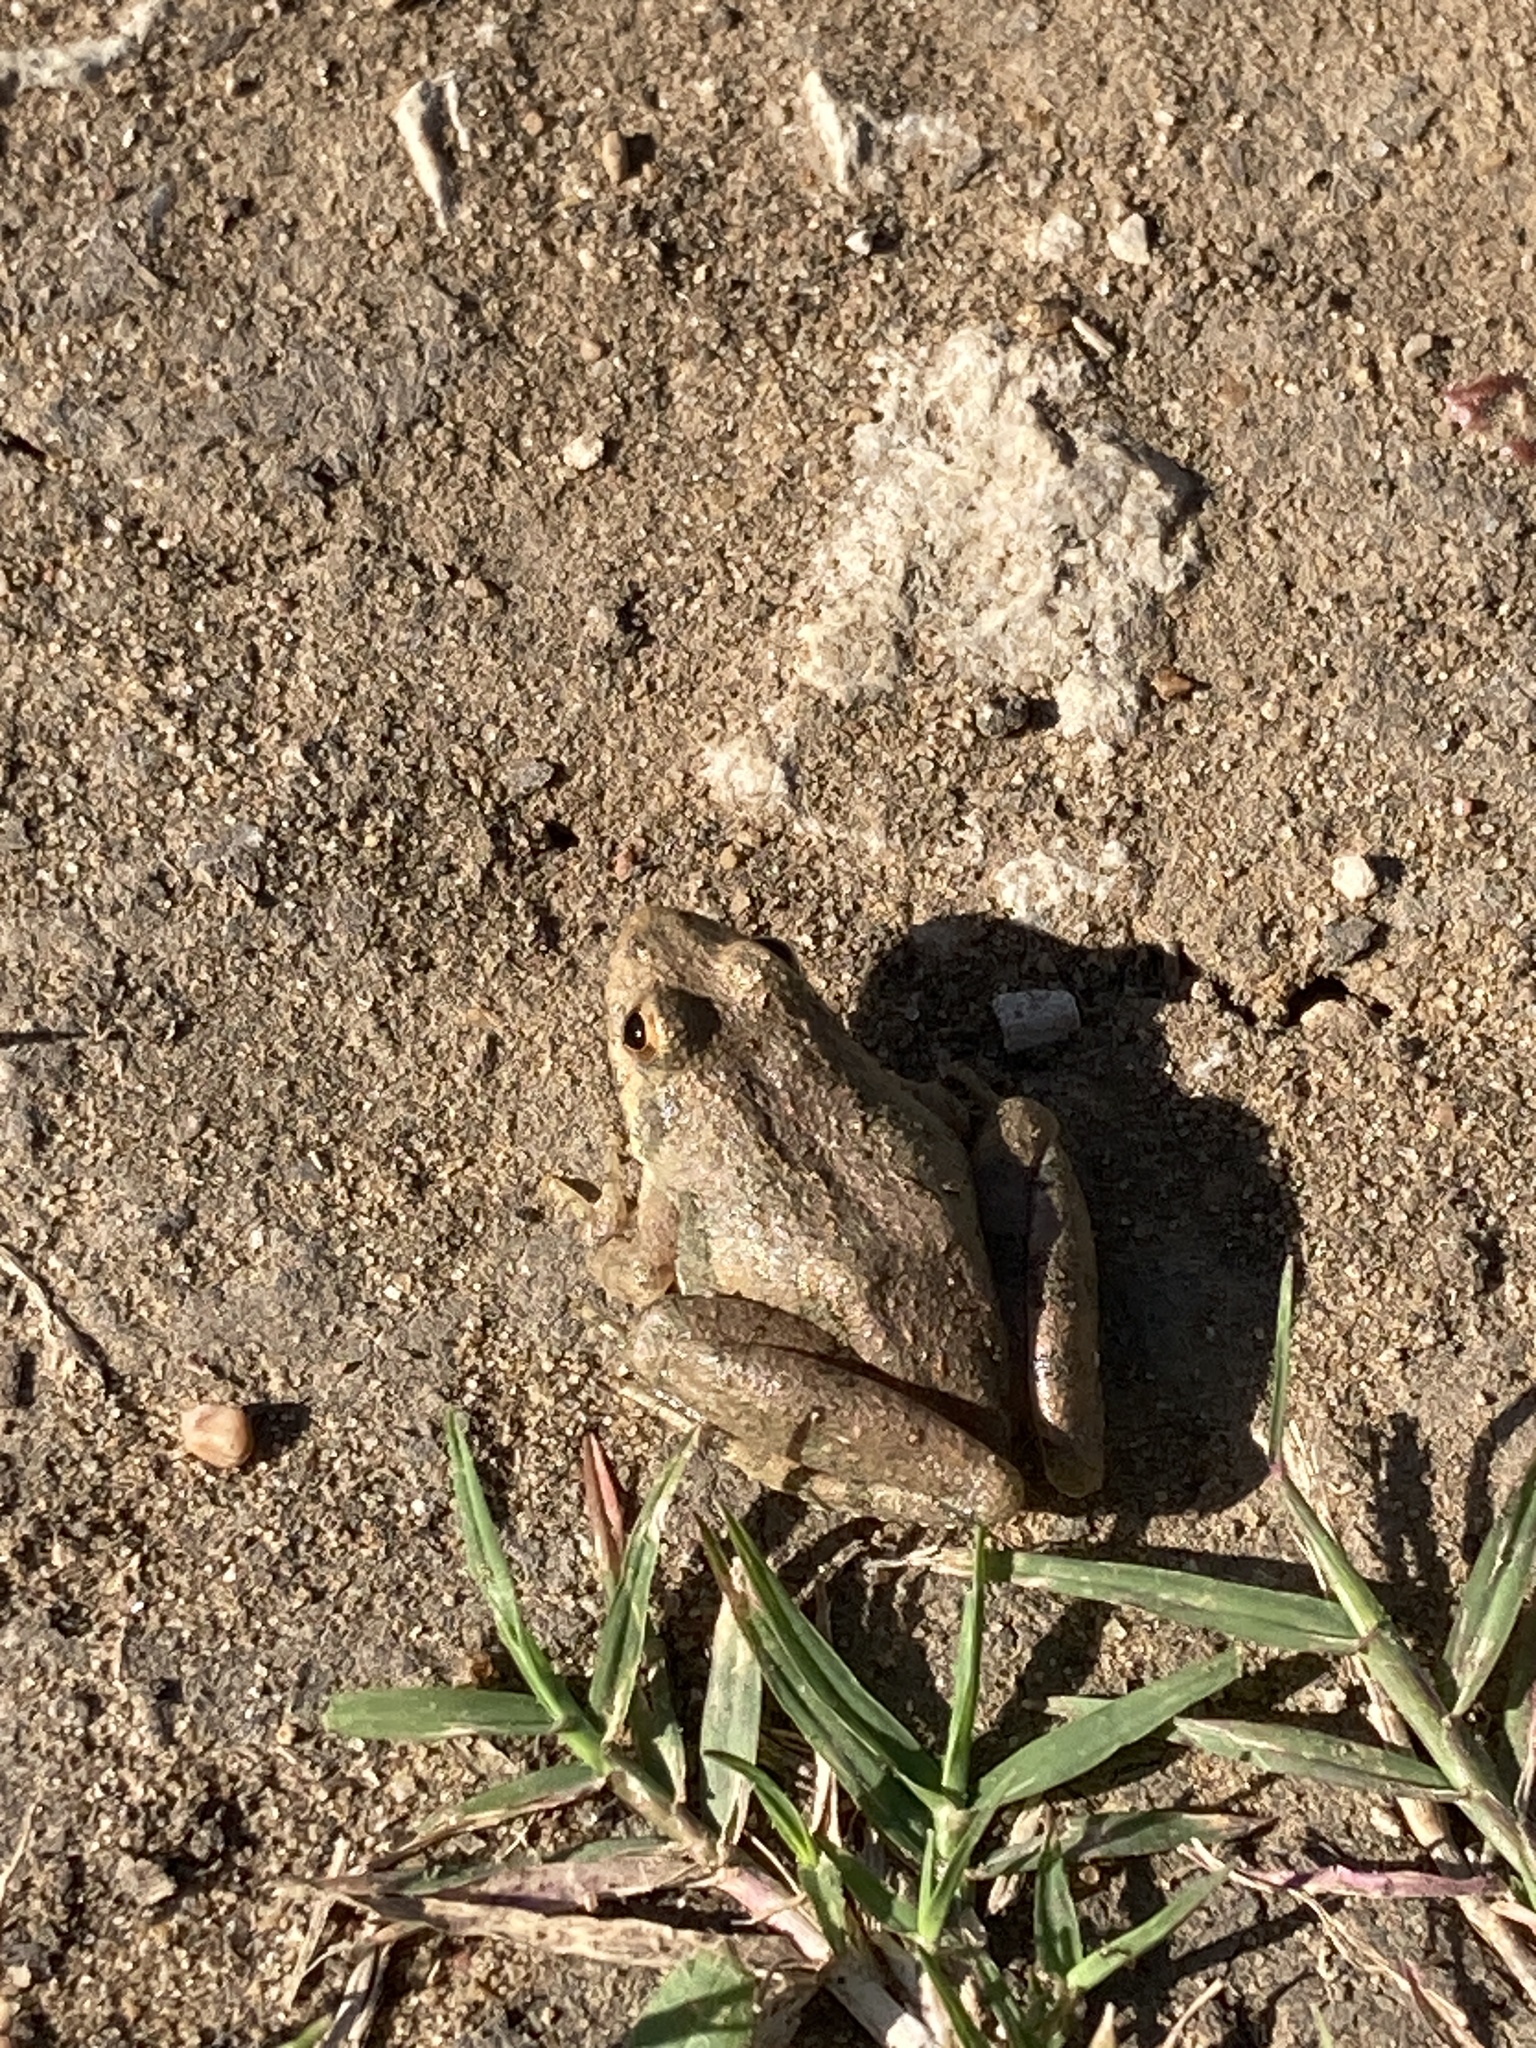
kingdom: Animalia
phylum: Chordata
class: Amphibia
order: Anura
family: Hylidae
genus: Acris
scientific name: Acris blanchardi
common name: Blanchard's cricket frog
